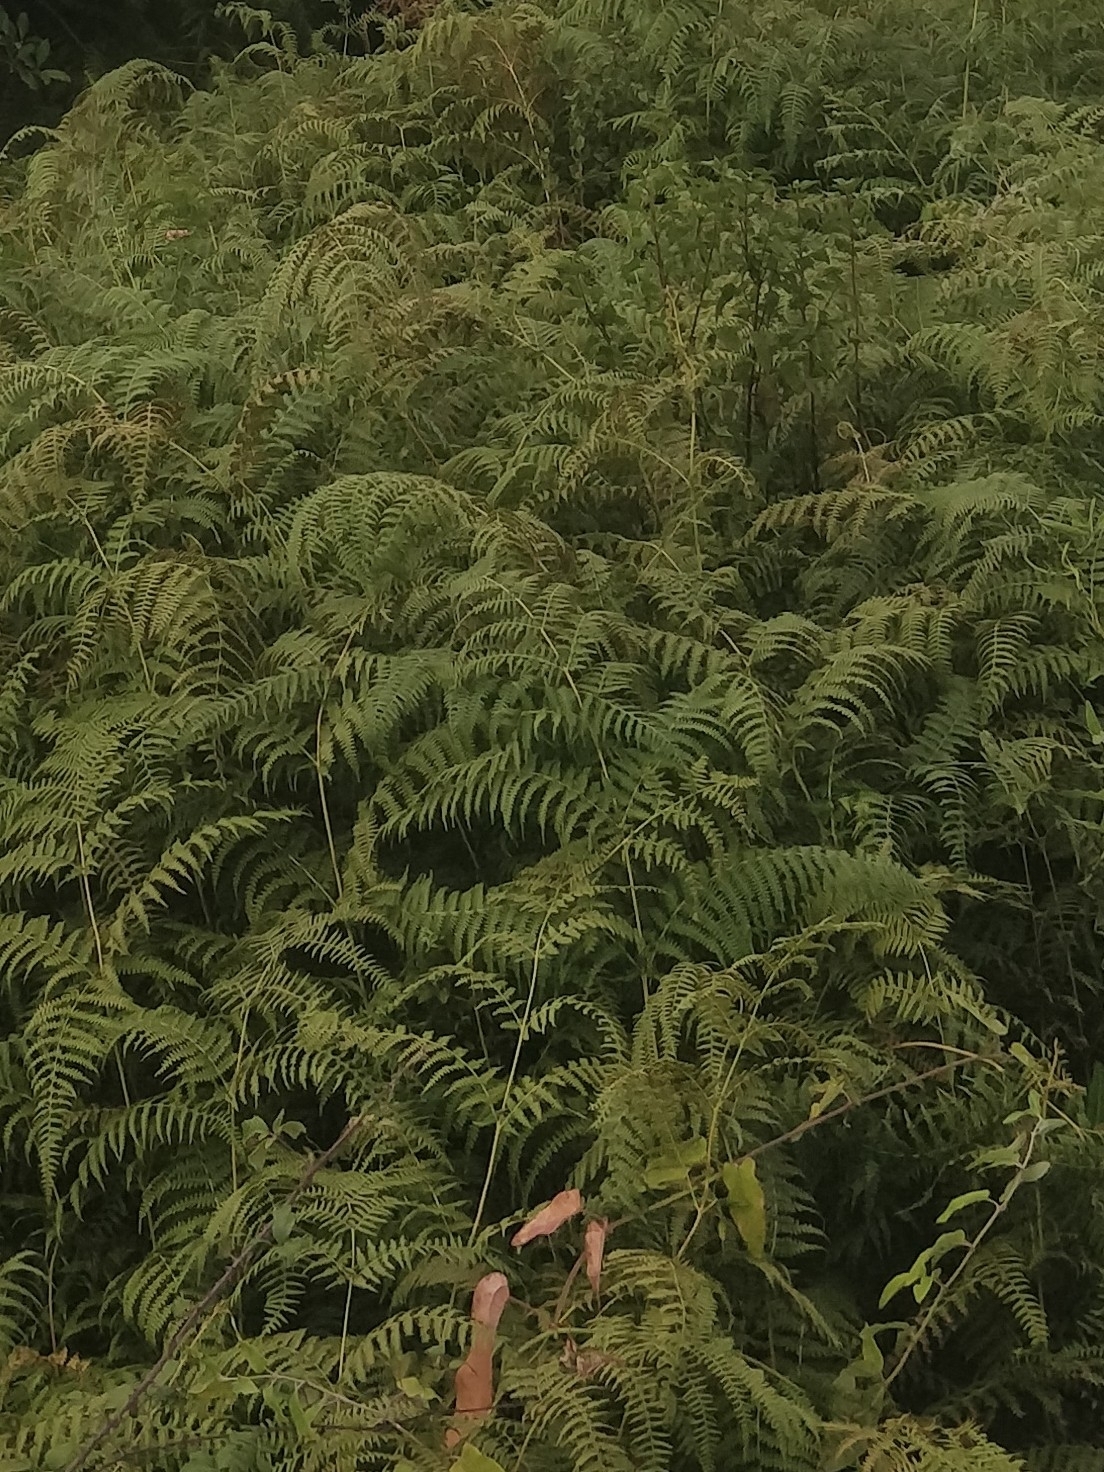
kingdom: Plantae
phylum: Tracheophyta
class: Polypodiopsida
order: Polypodiales
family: Dennstaedtiaceae
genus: Pteridium
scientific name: Pteridium aquilinum
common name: Bracken
